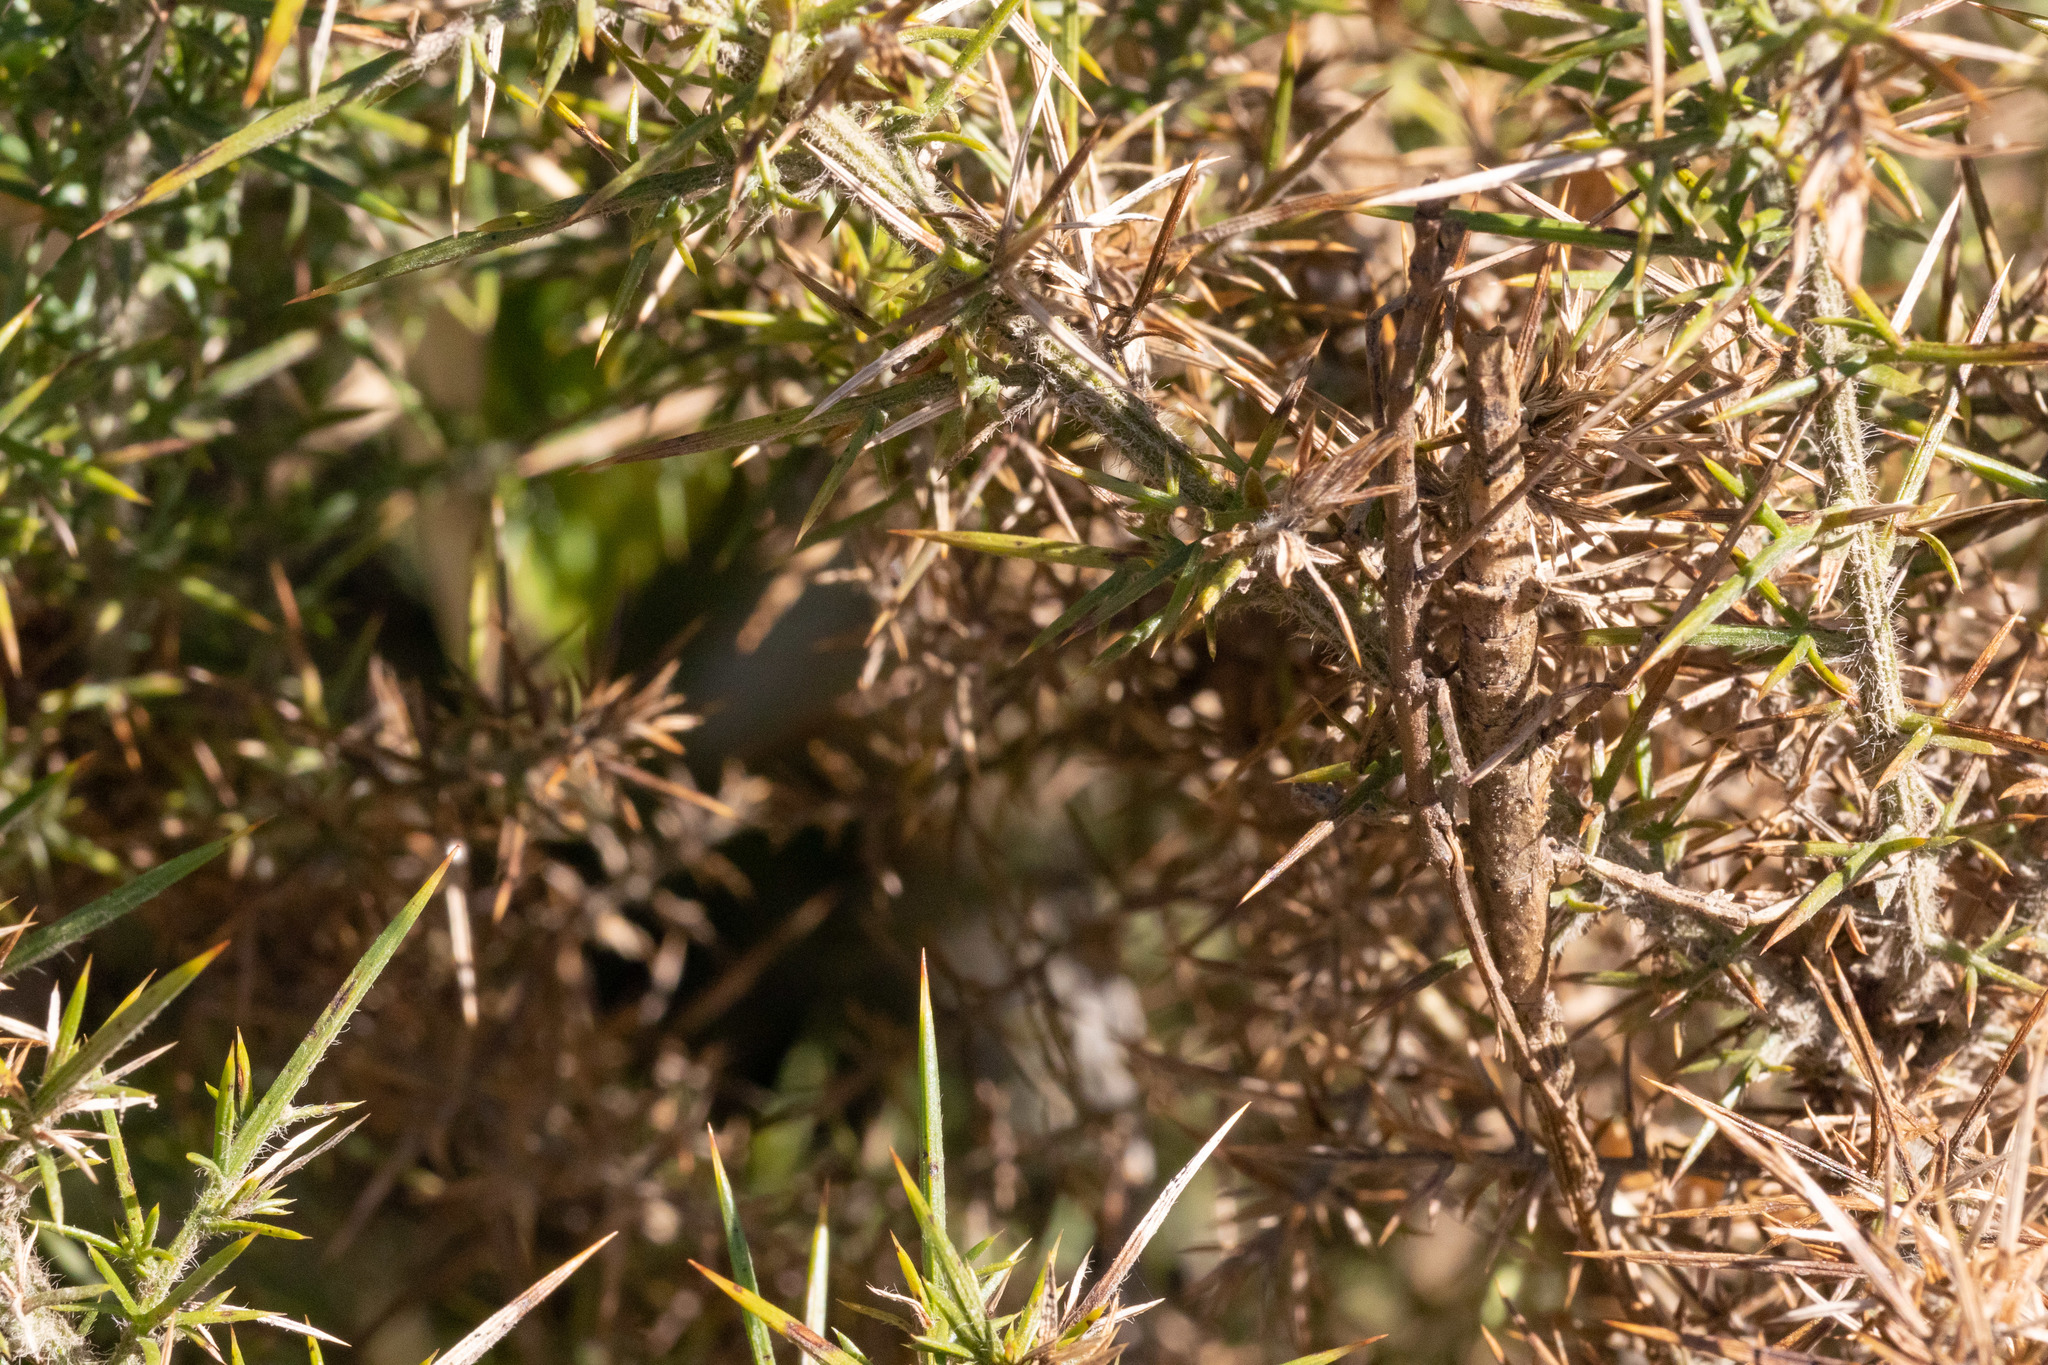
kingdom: Animalia
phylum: Arthropoda
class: Insecta
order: Phasmida
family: Phasmatidae
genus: Niveaphasma
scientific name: Niveaphasma annulatum
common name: Hutton's stick insect
